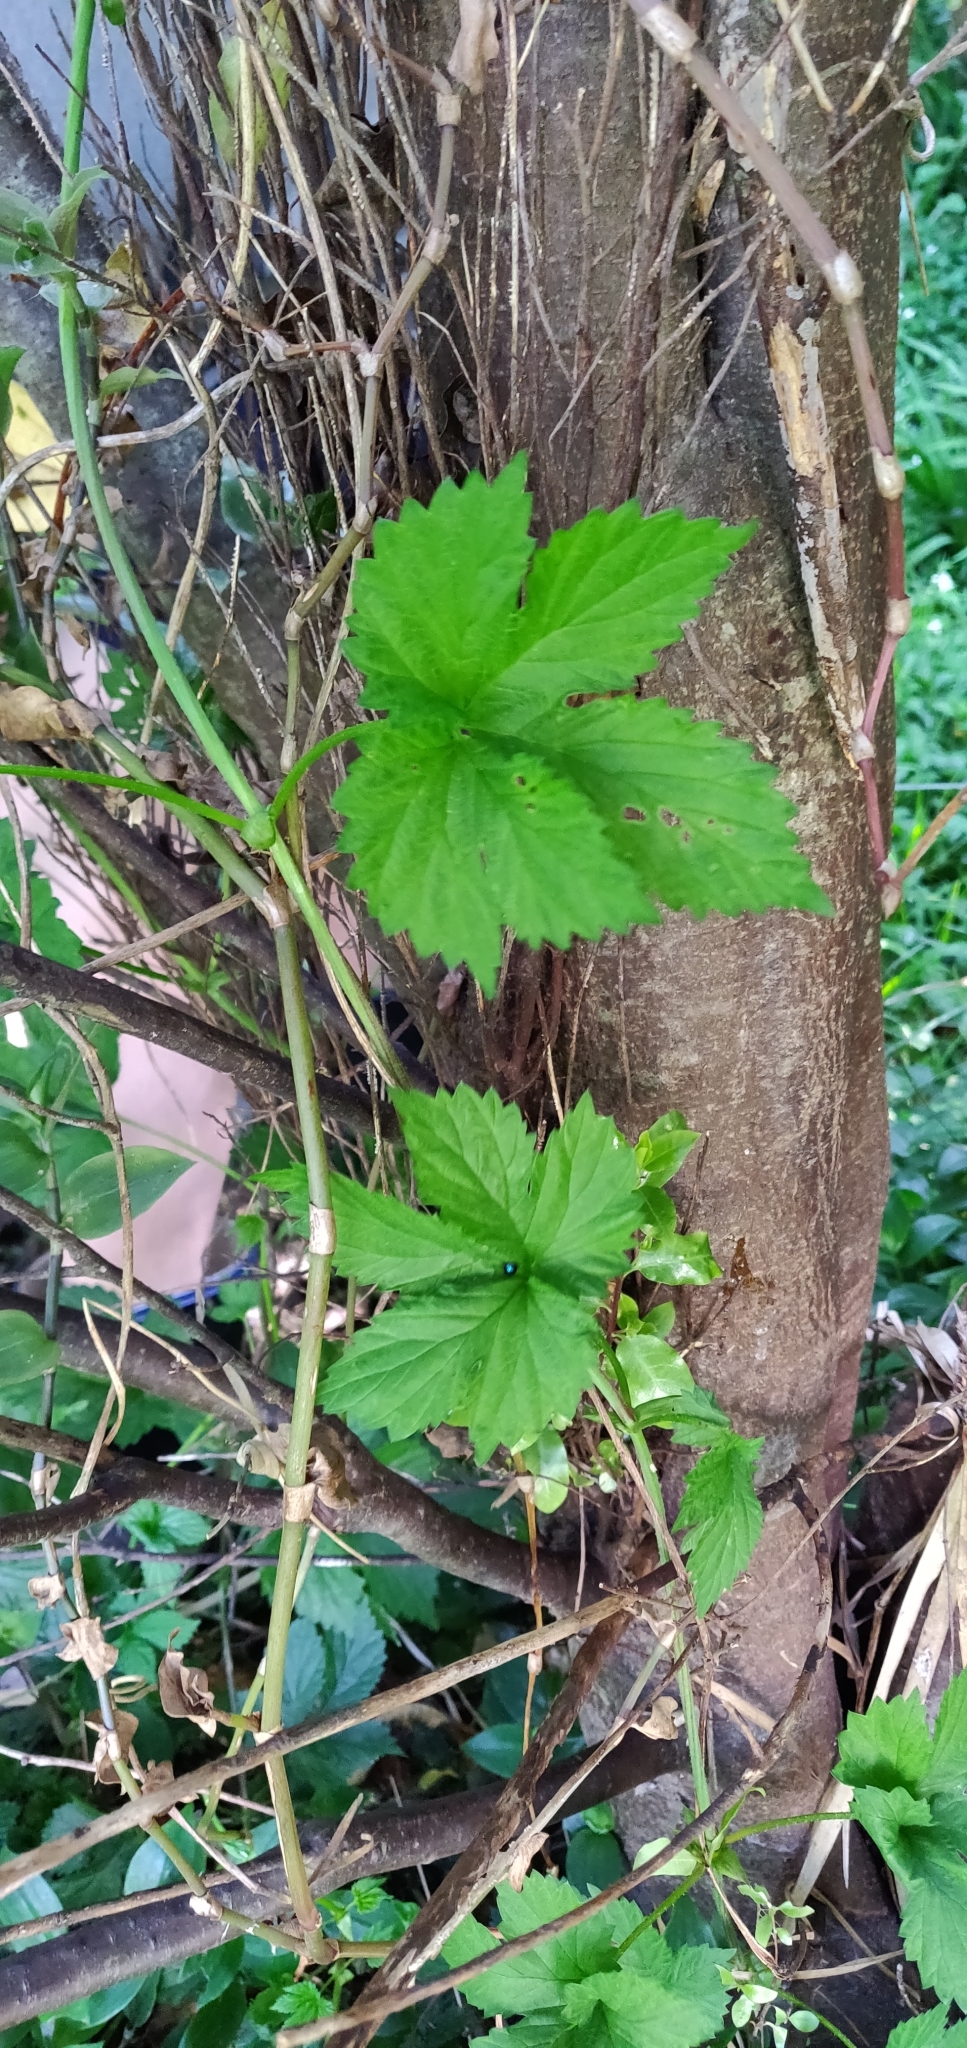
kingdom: Plantae
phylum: Tracheophyta
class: Magnoliopsida
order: Rosales
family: Cannabaceae
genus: Humulus
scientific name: Humulus lupulus
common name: Hop
